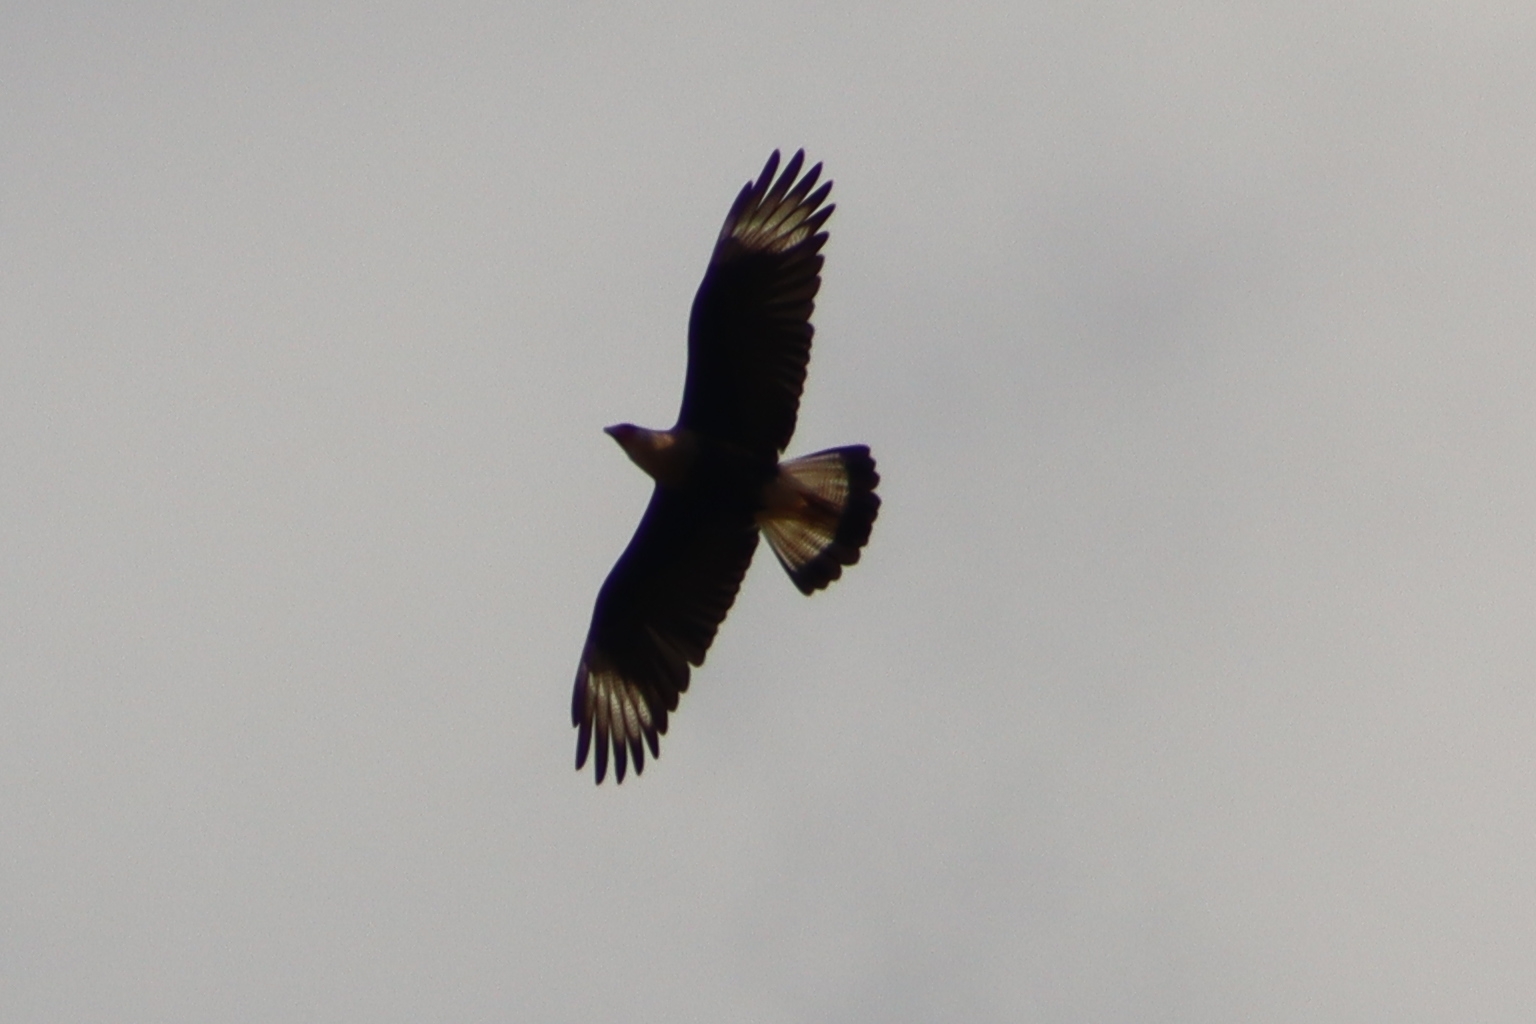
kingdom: Animalia
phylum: Chordata
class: Aves
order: Falconiformes
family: Falconidae
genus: Caracara
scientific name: Caracara plancus
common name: Southern caracara
